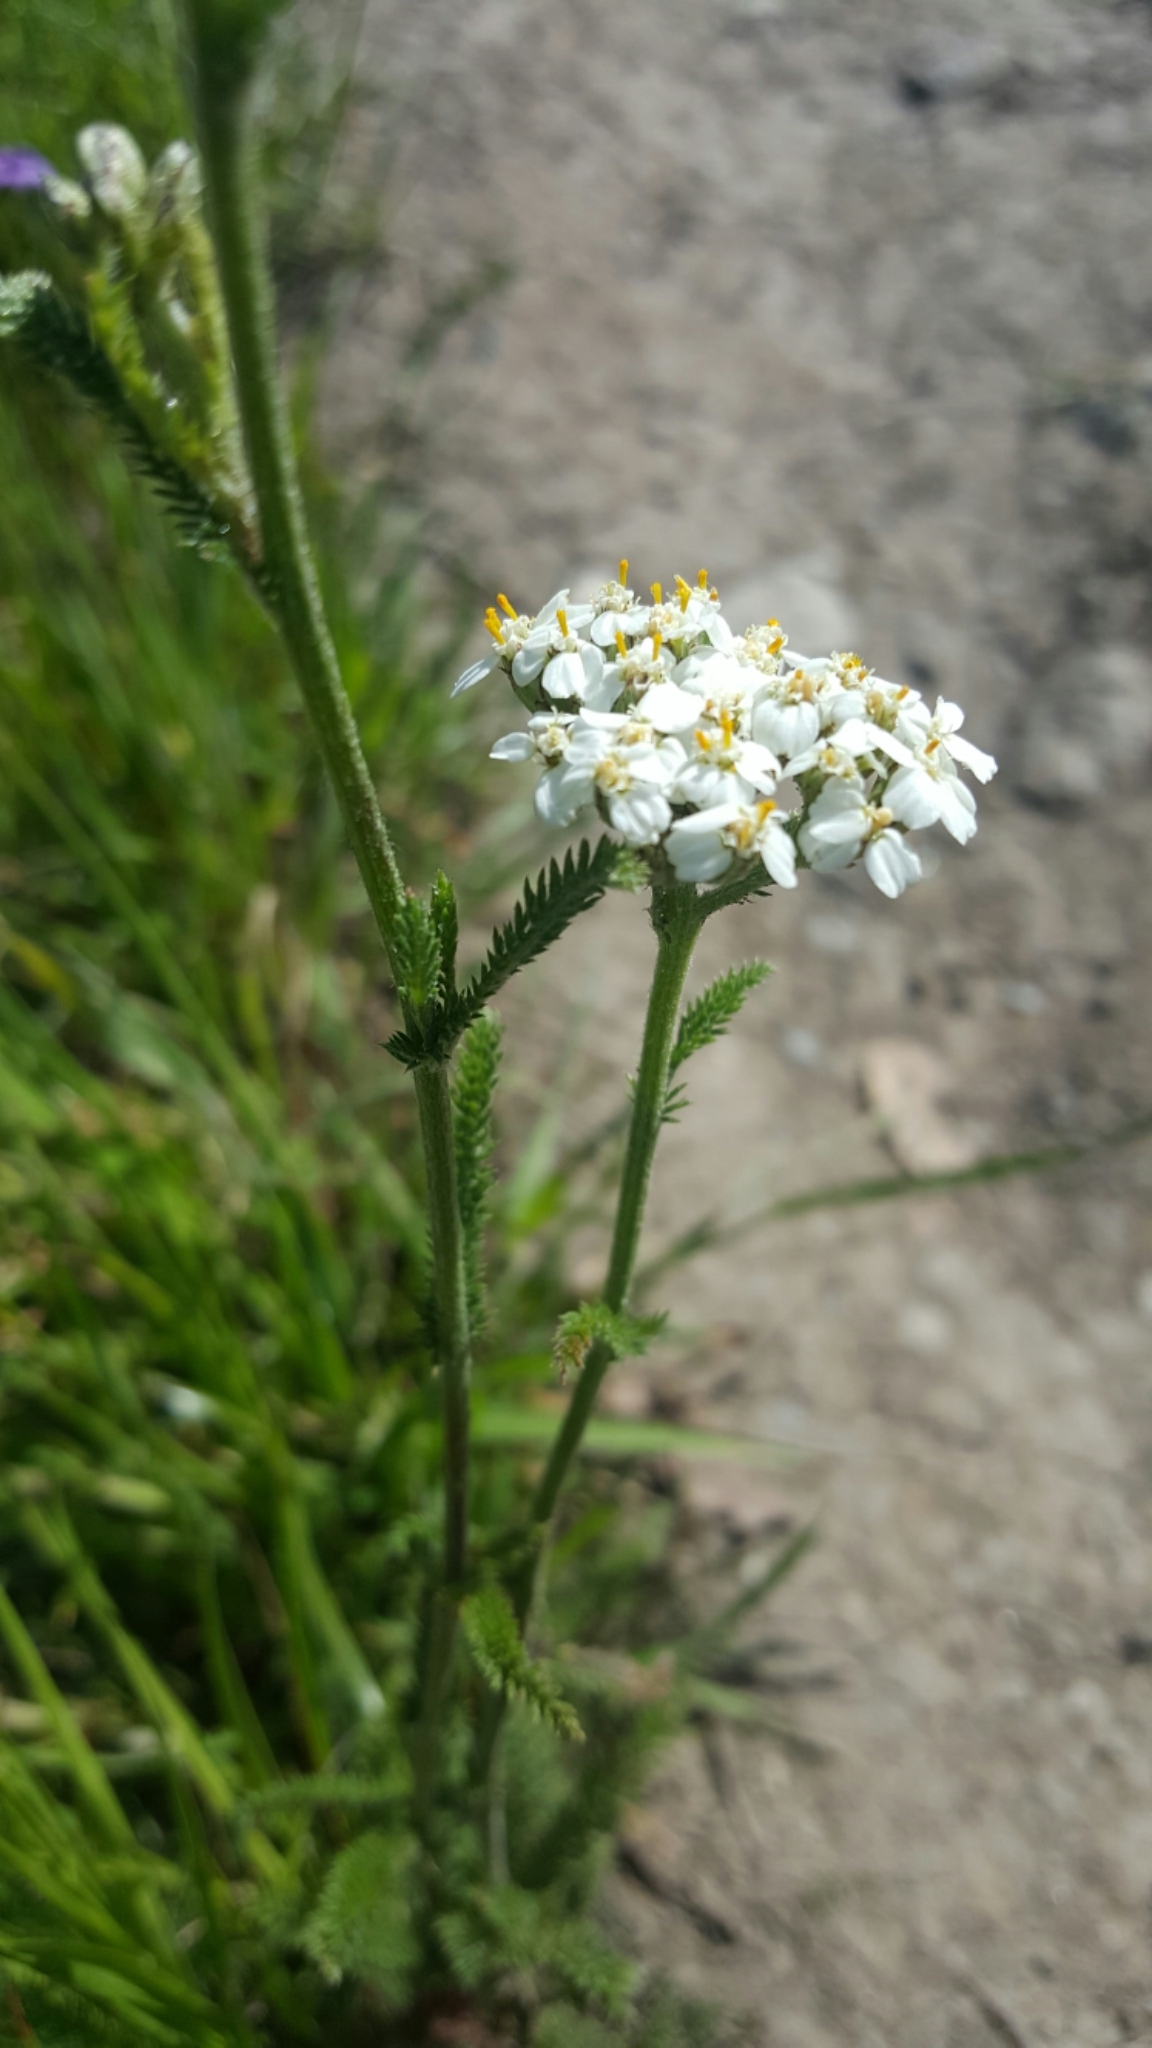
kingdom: Plantae
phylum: Tracheophyta
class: Magnoliopsida
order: Asterales
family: Asteraceae
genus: Achillea
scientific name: Achillea millefolium
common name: Yarrow
